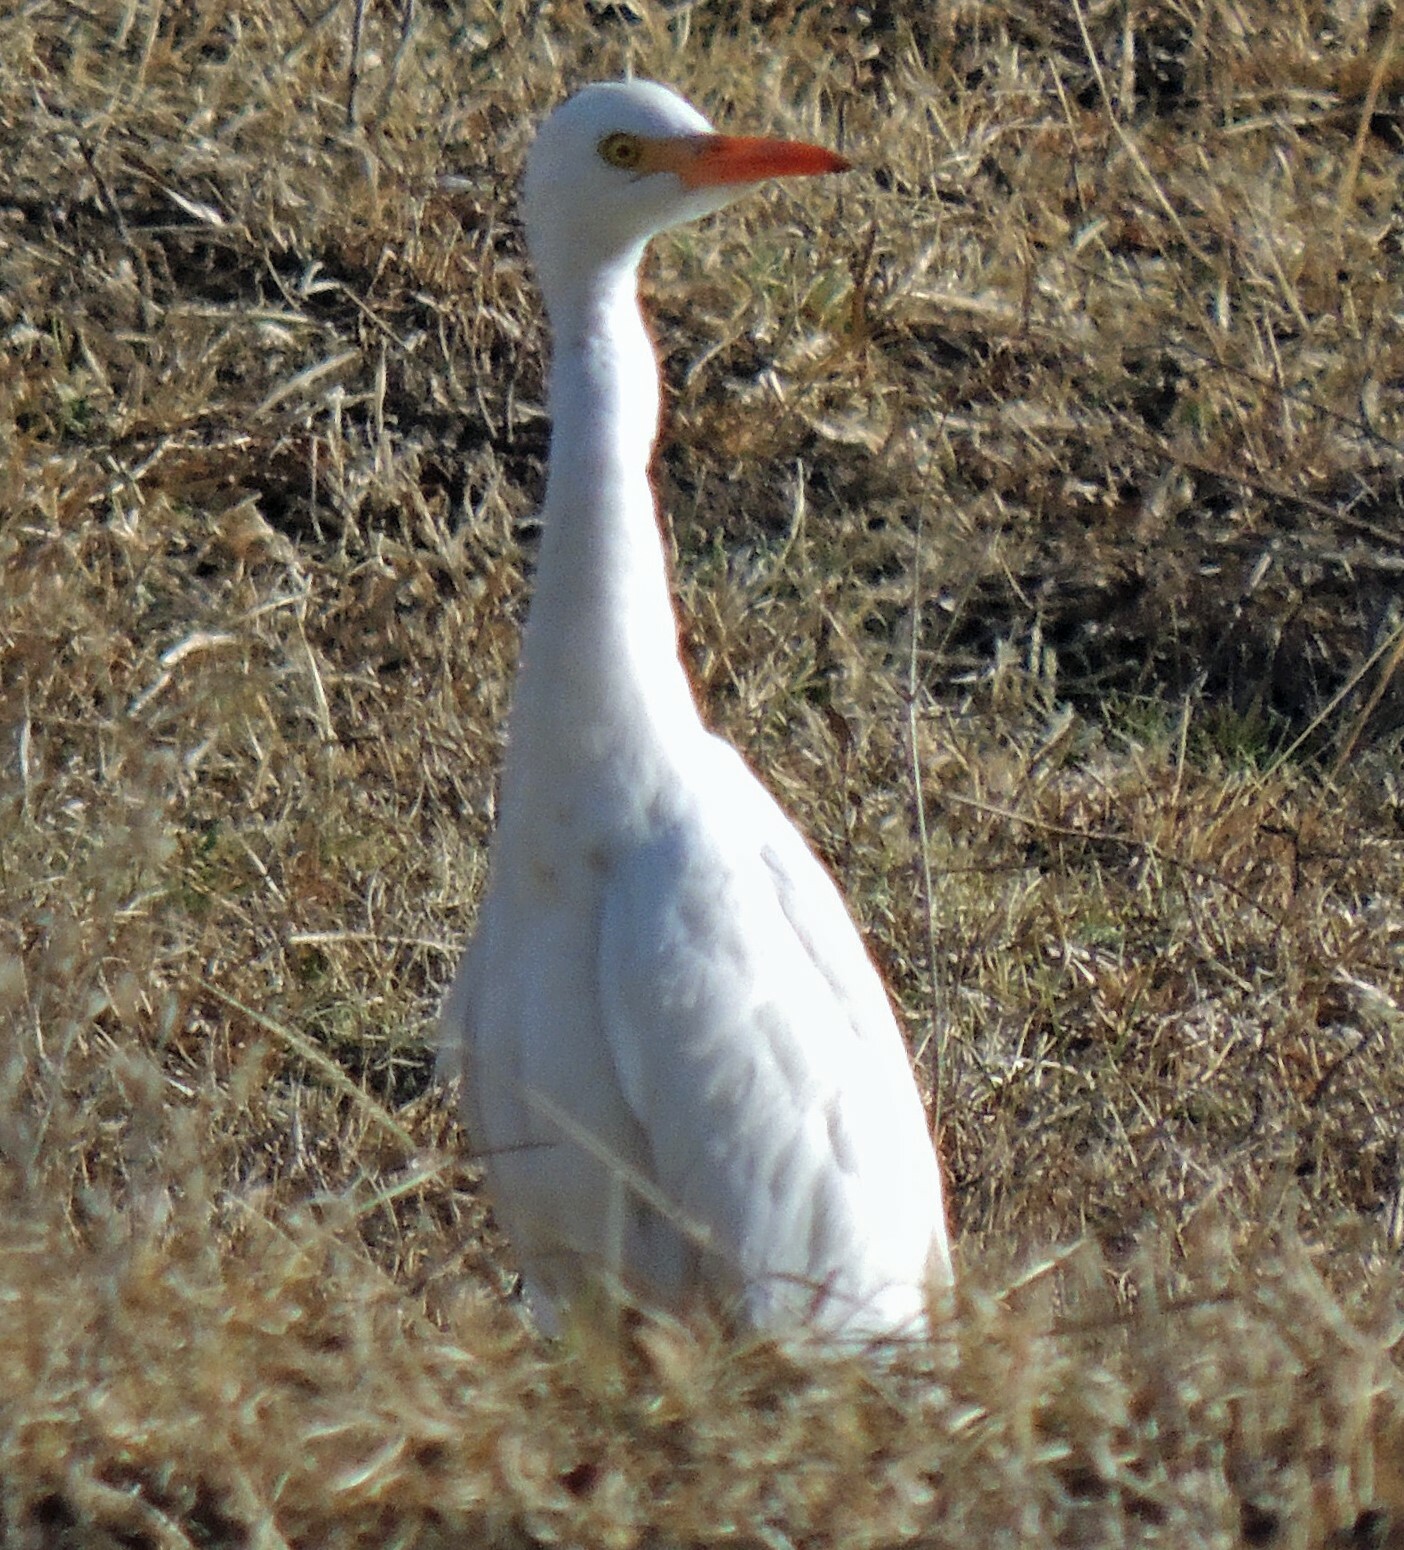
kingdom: Animalia
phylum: Chordata
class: Aves
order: Pelecaniformes
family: Ardeidae
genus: Bubulcus
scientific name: Bubulcus ibis
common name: Cattle egret
